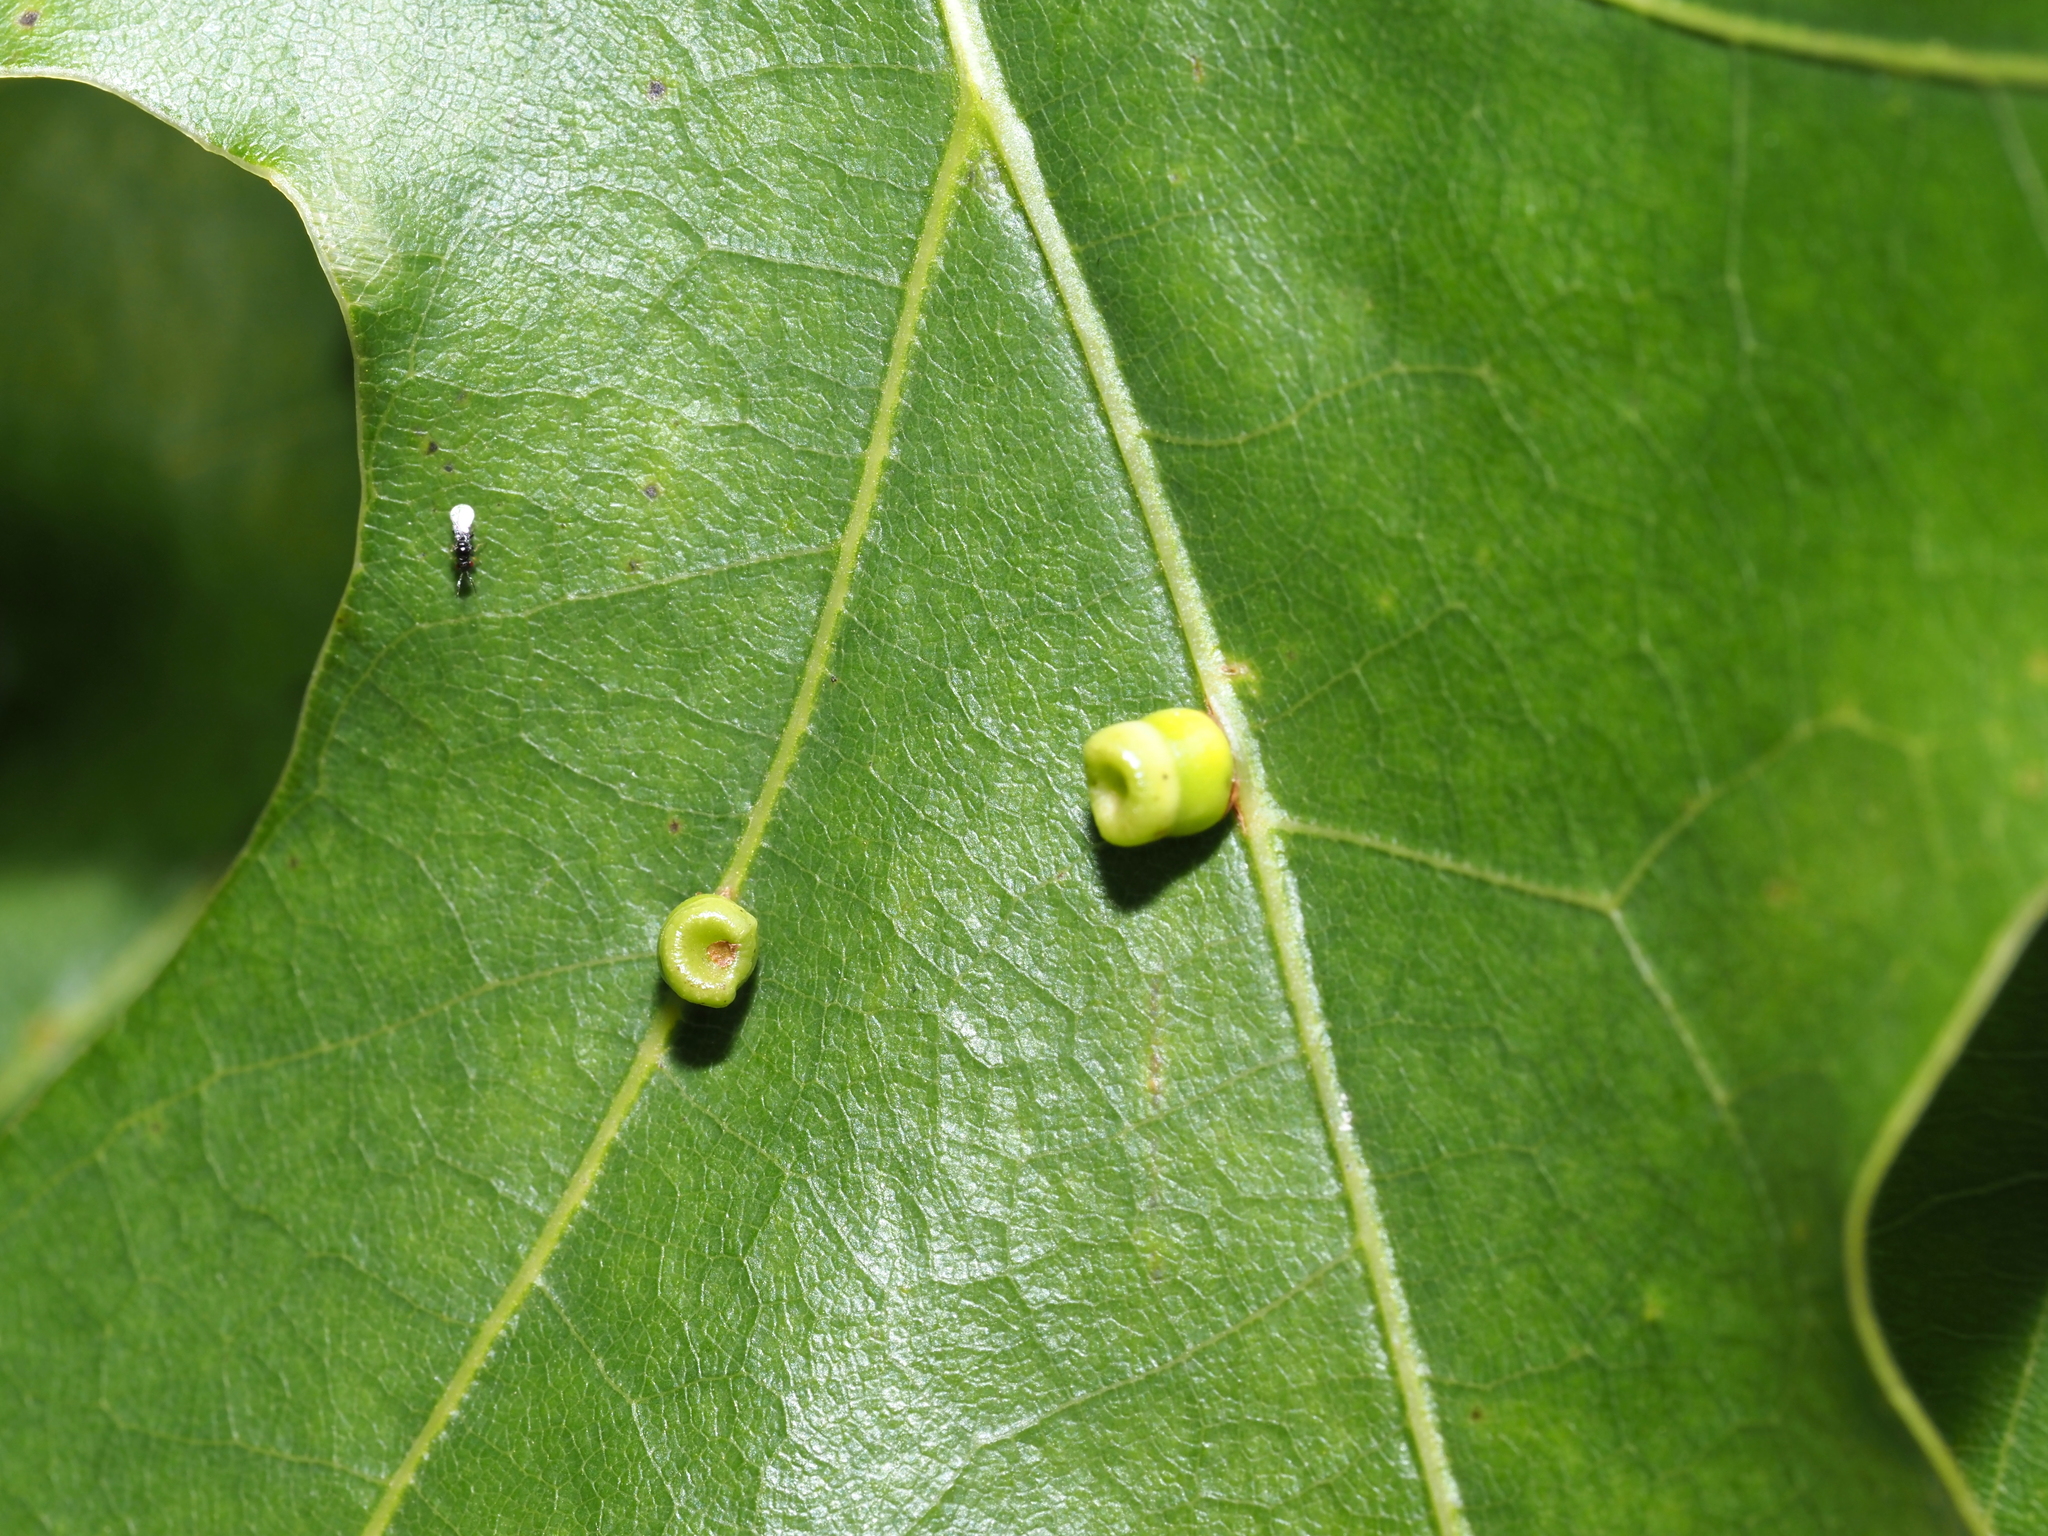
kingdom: Animalia
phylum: Arthropoda
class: Insecta
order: Hymenoptera
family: Cynipidae
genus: Kokkocynips
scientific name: Kokkocynips rileyi
